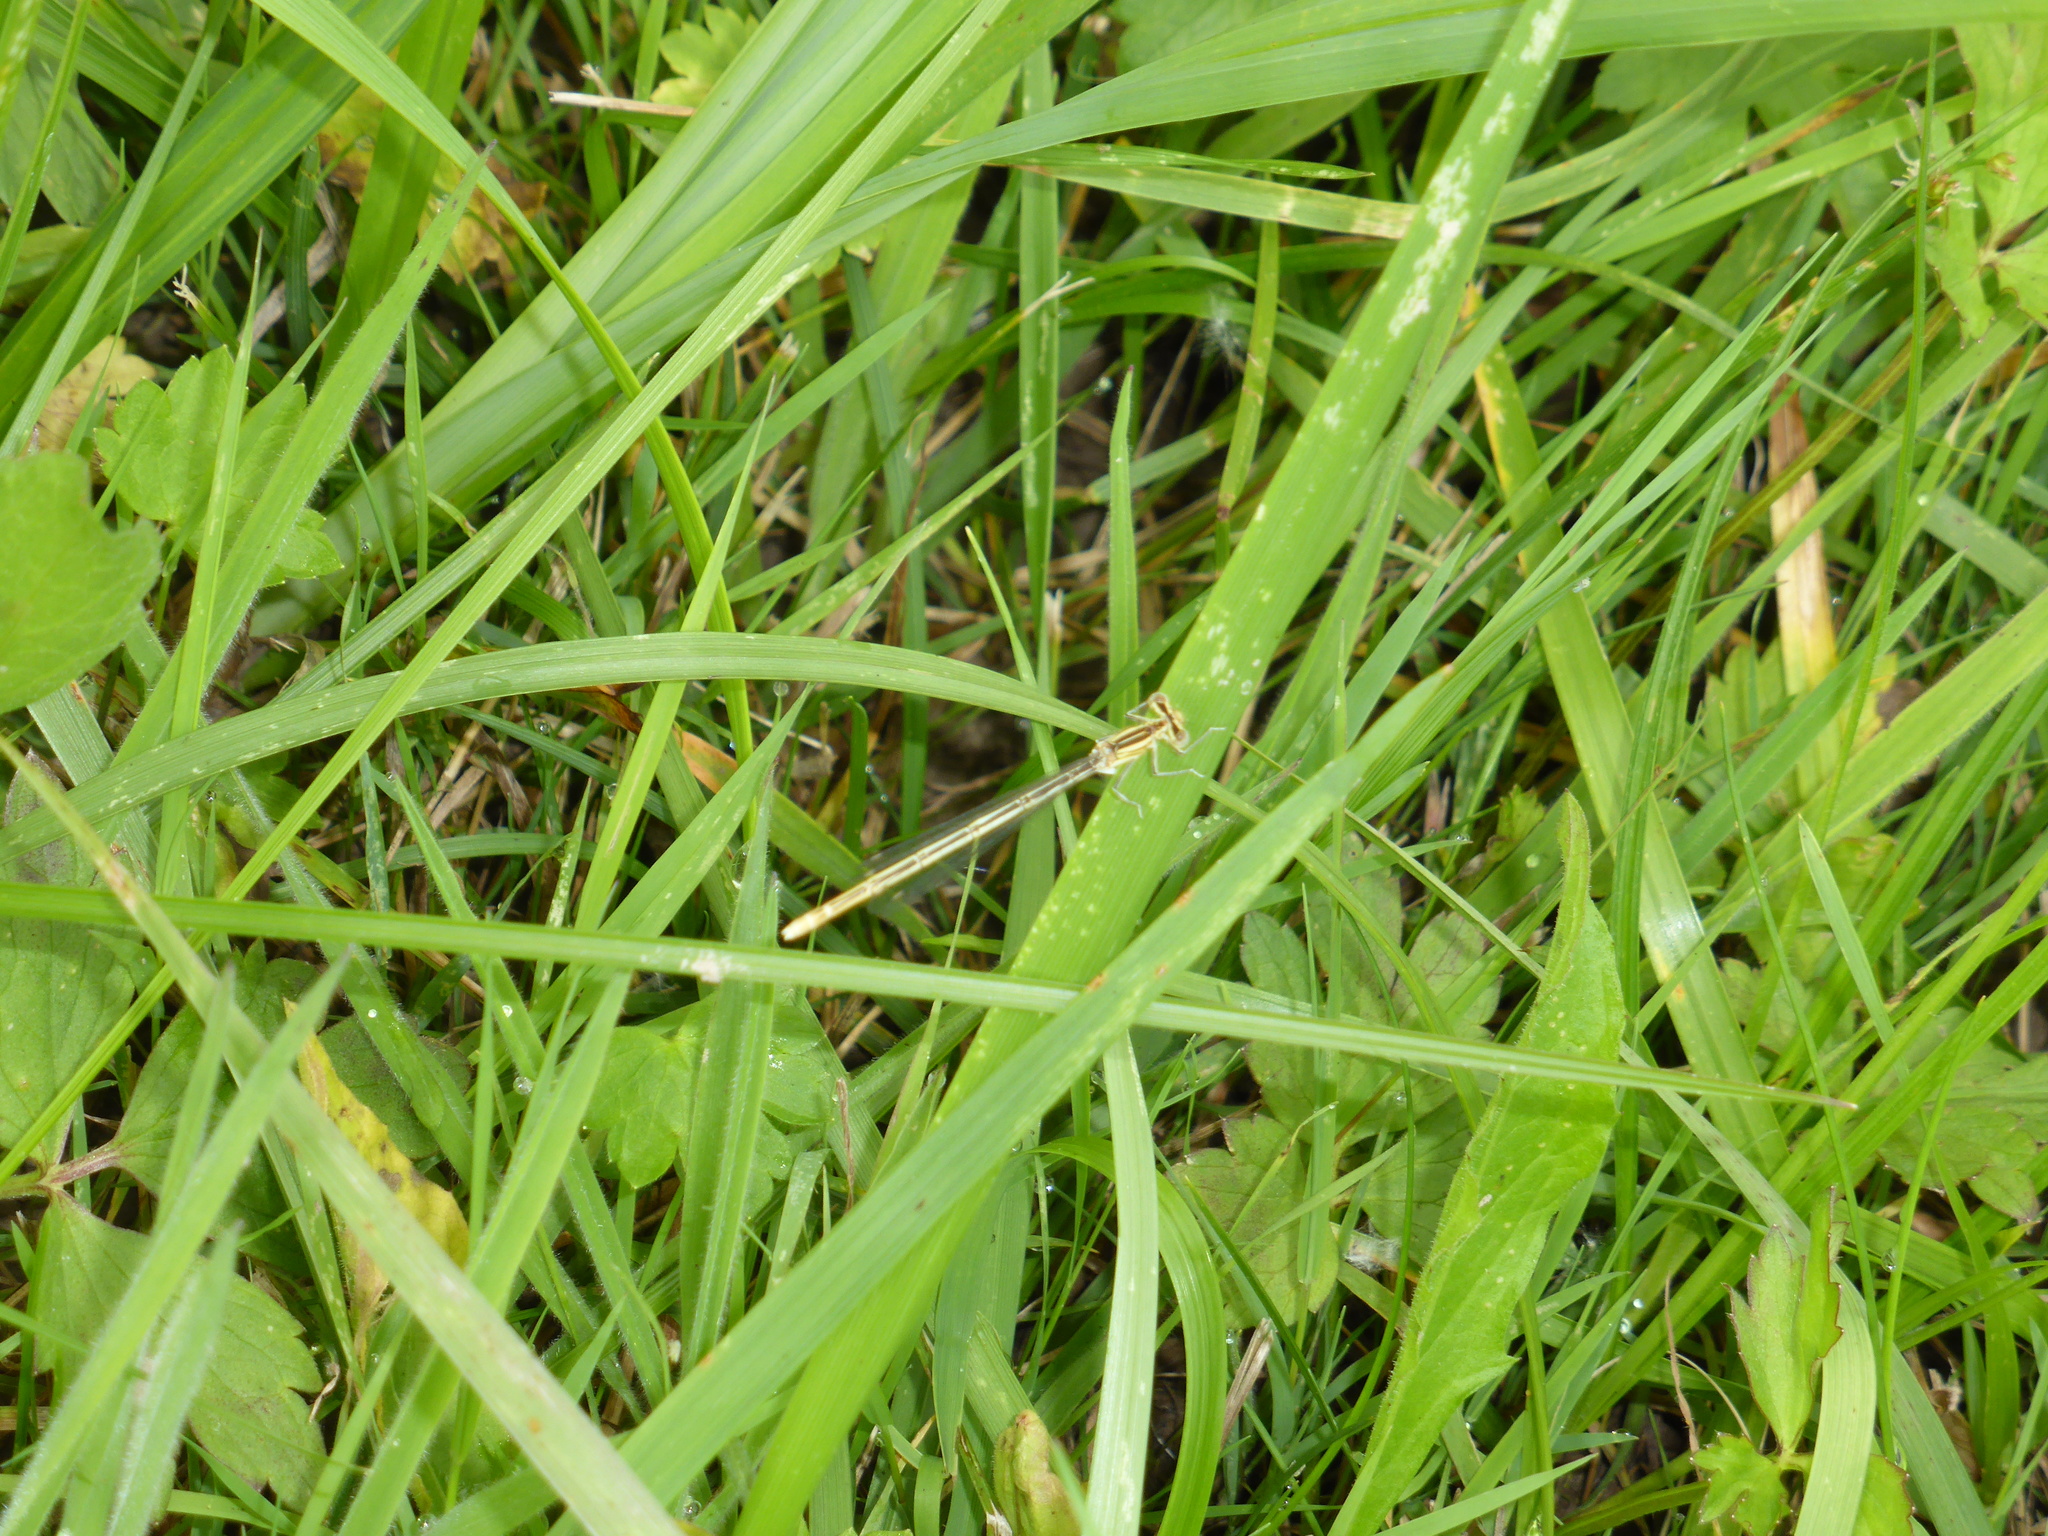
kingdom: Animalia
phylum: Arthropoda
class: Insecta
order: Odonata
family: Platycnemididae
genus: Platycnemis
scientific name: Platycnemis pennipes
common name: White-legged damselfly
